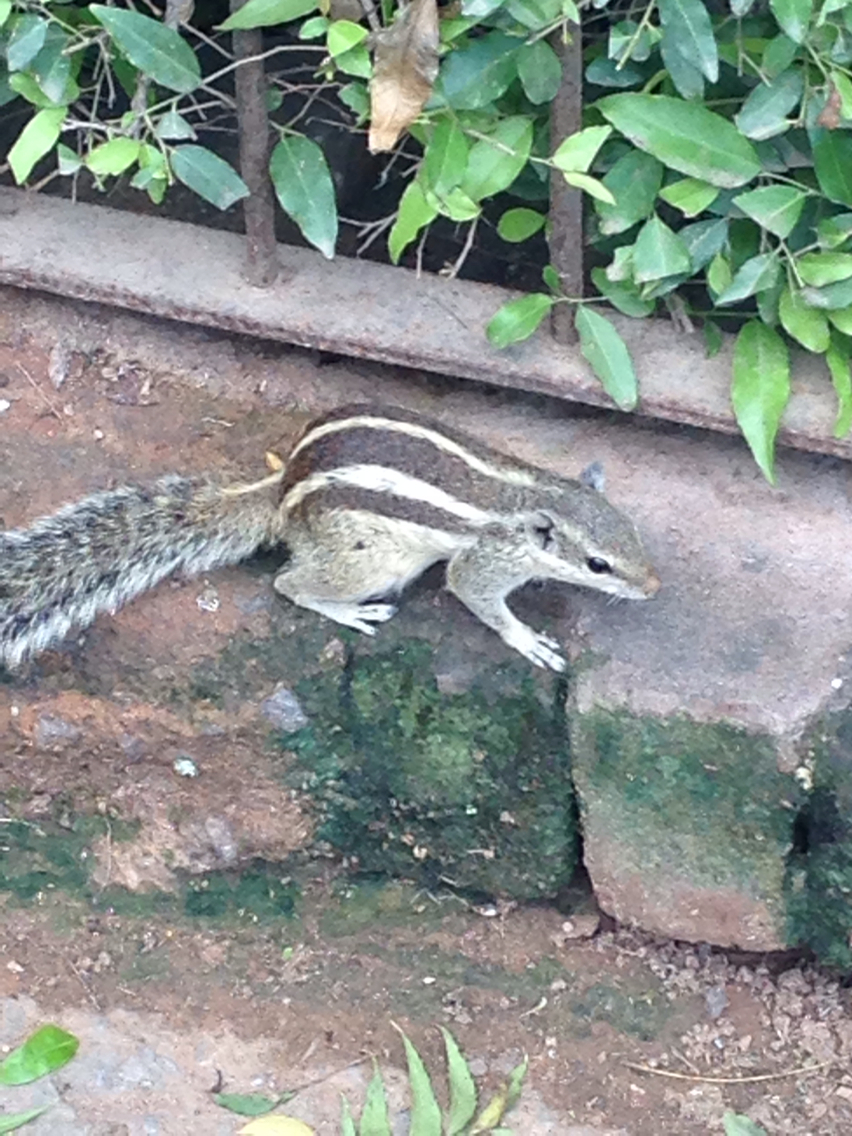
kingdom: Animalia
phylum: Chordata
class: Mammalia
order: Rodentia
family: Sciuridae
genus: Funambulus
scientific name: Funambulus pennantii
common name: Northern palm squirrel
